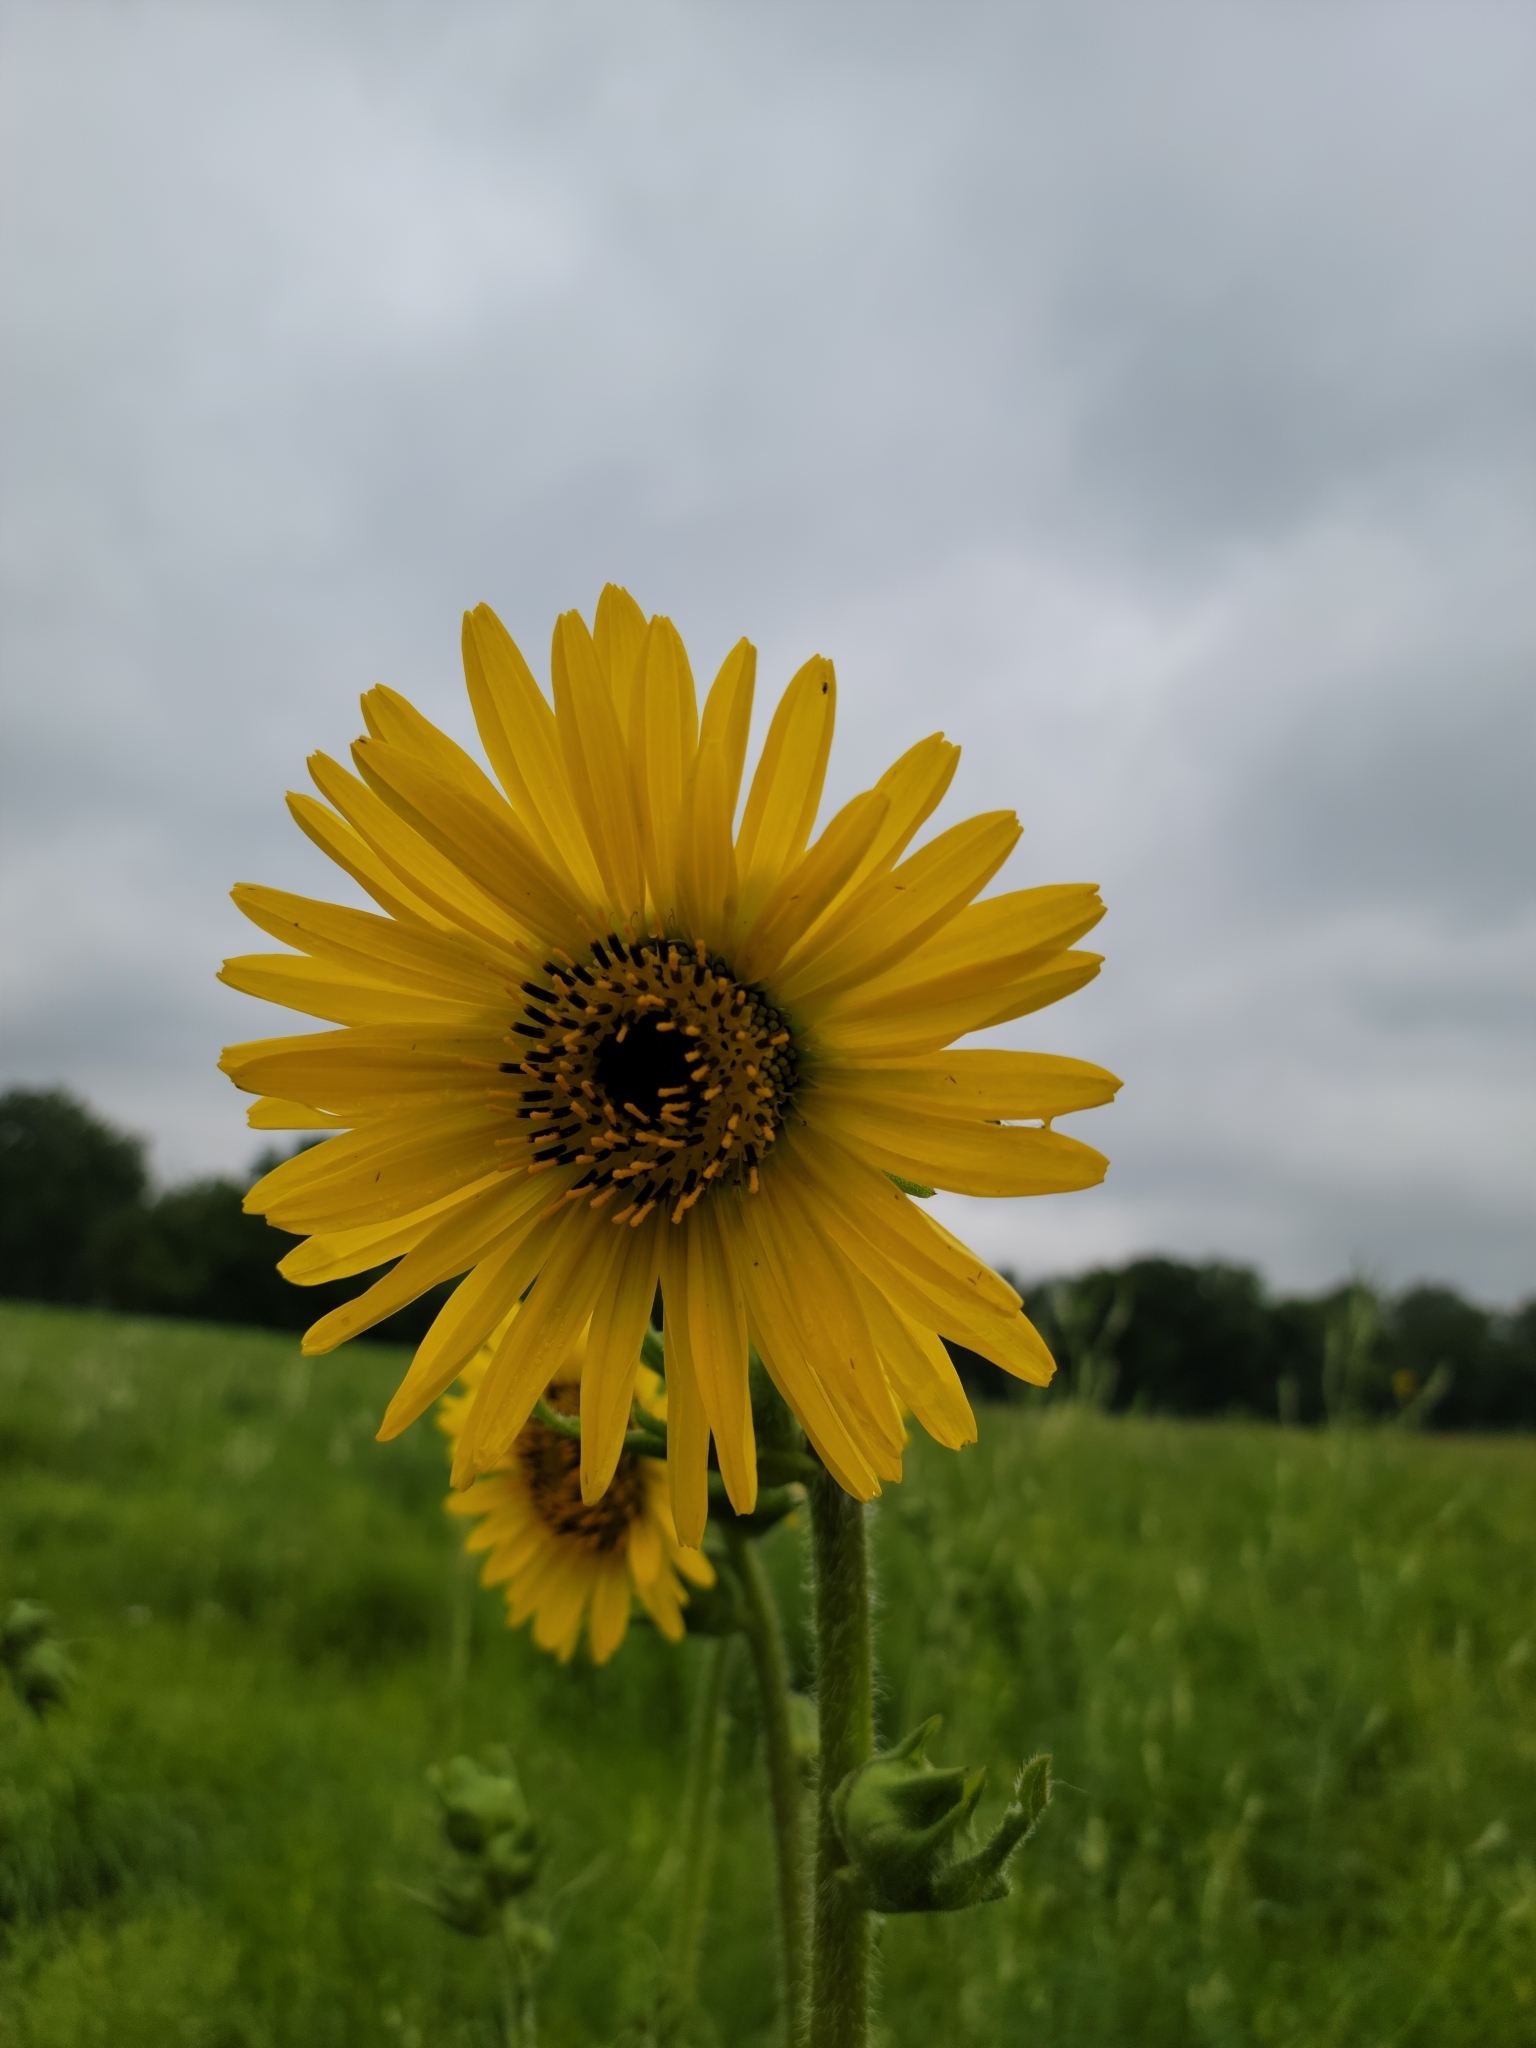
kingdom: Plantae
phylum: Tracheophyta
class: Magnoliopsida
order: Asterales
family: Asteraceae
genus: Silphium
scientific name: Silphium laciniatum
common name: Polarplant
